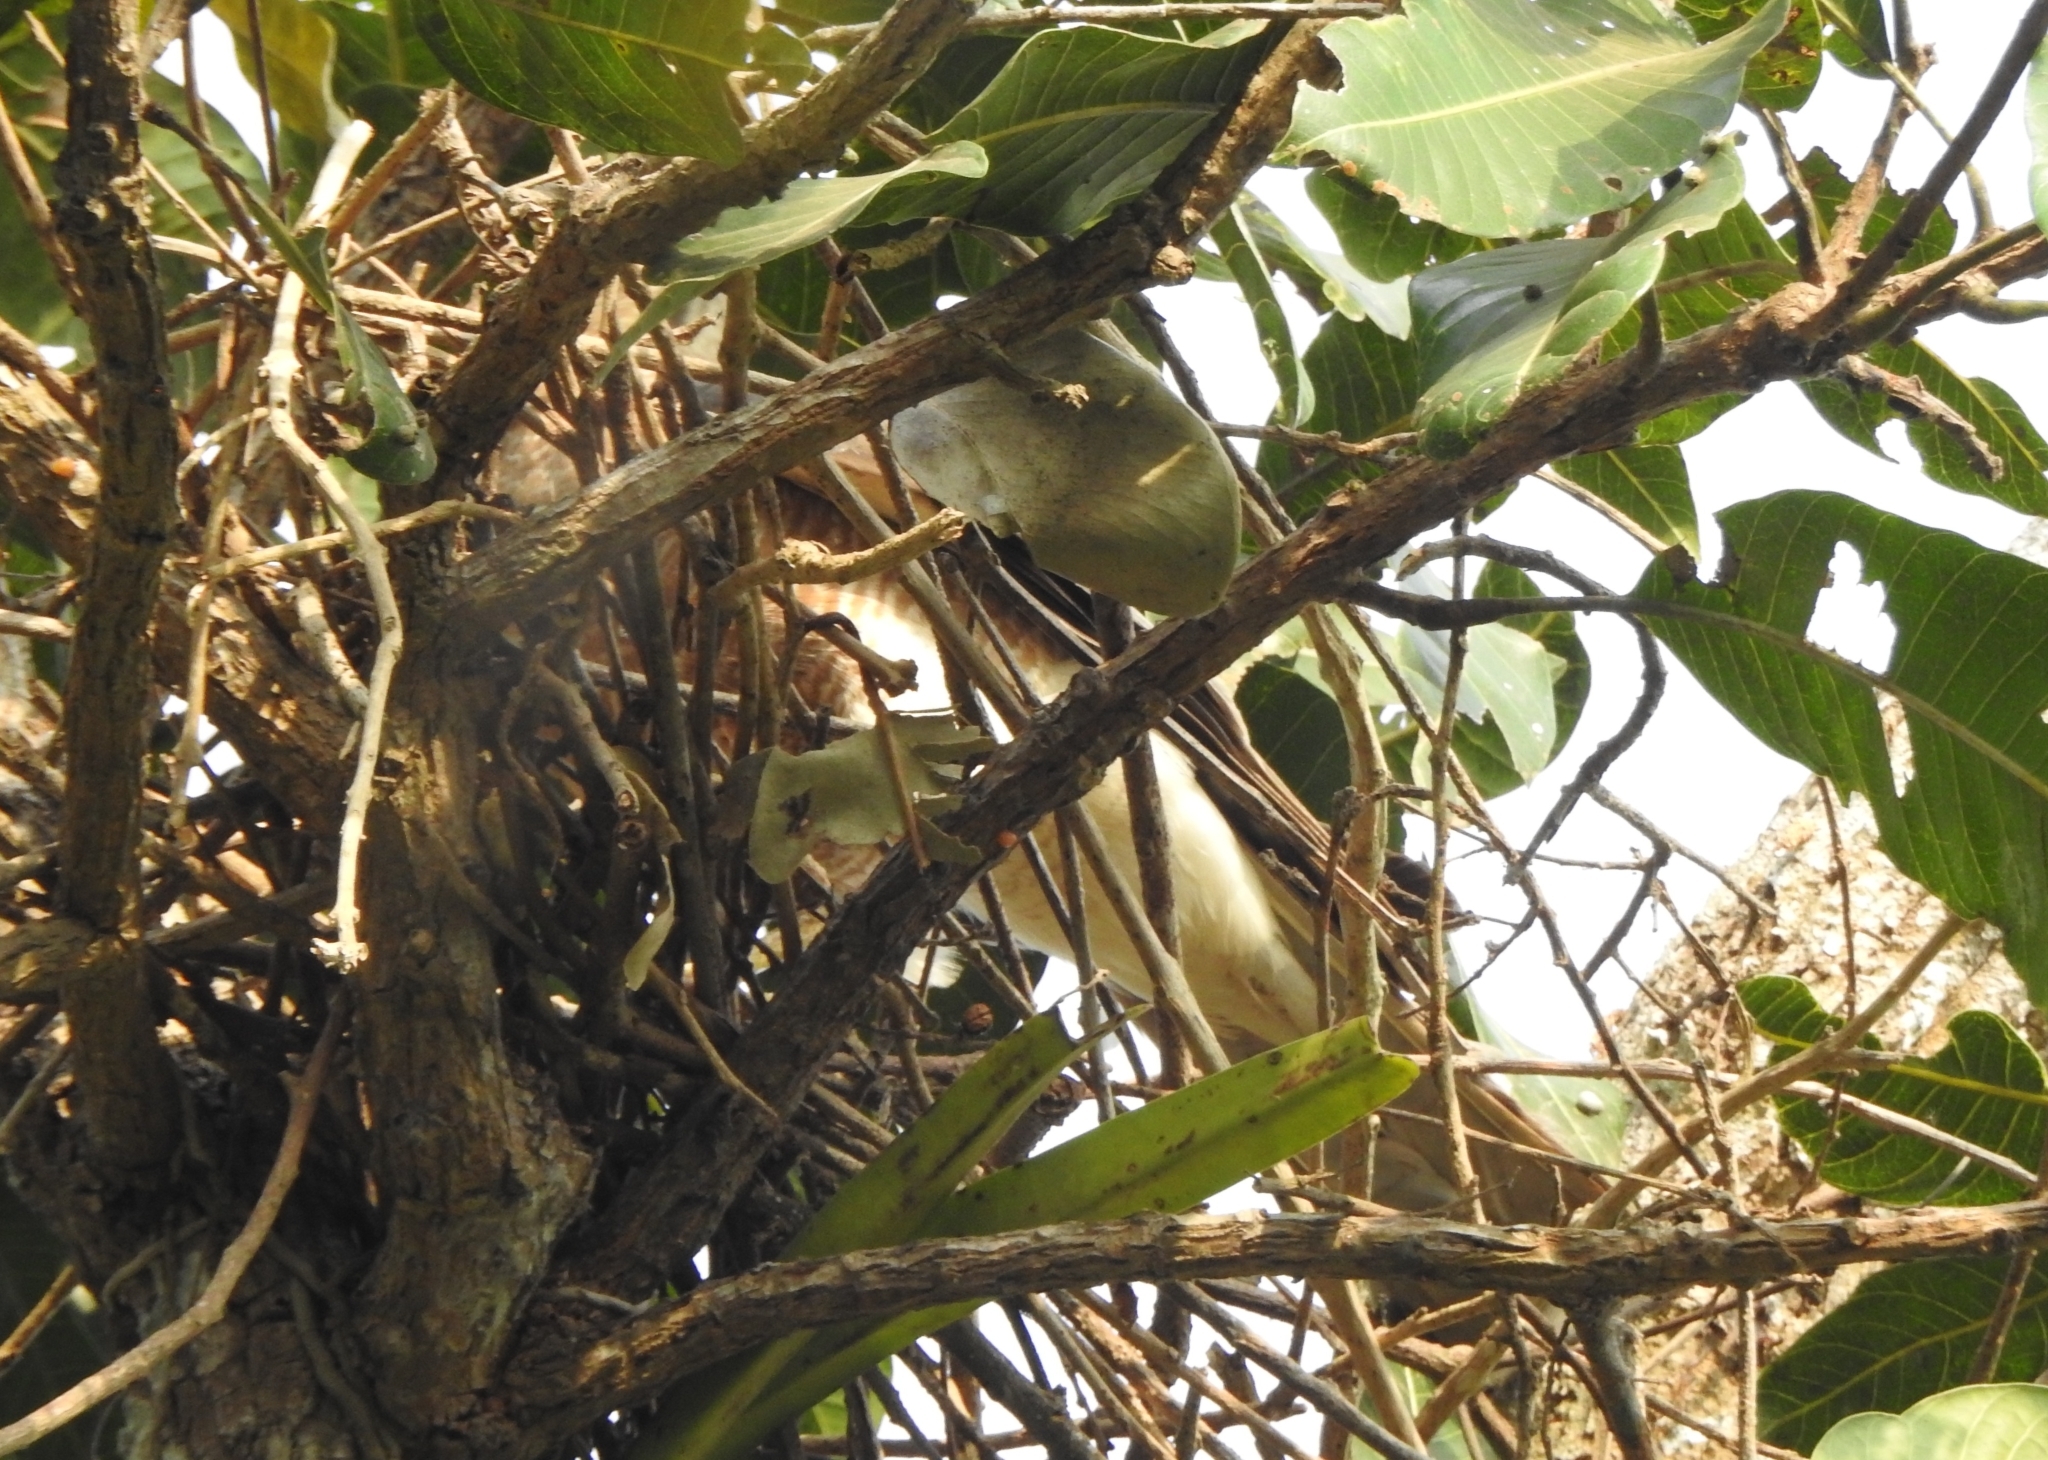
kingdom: Animalia
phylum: Chordata
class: Aves
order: Accipitriformes
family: Accipitridae
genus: Accipiter
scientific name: Accipiter badius
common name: Shikra
